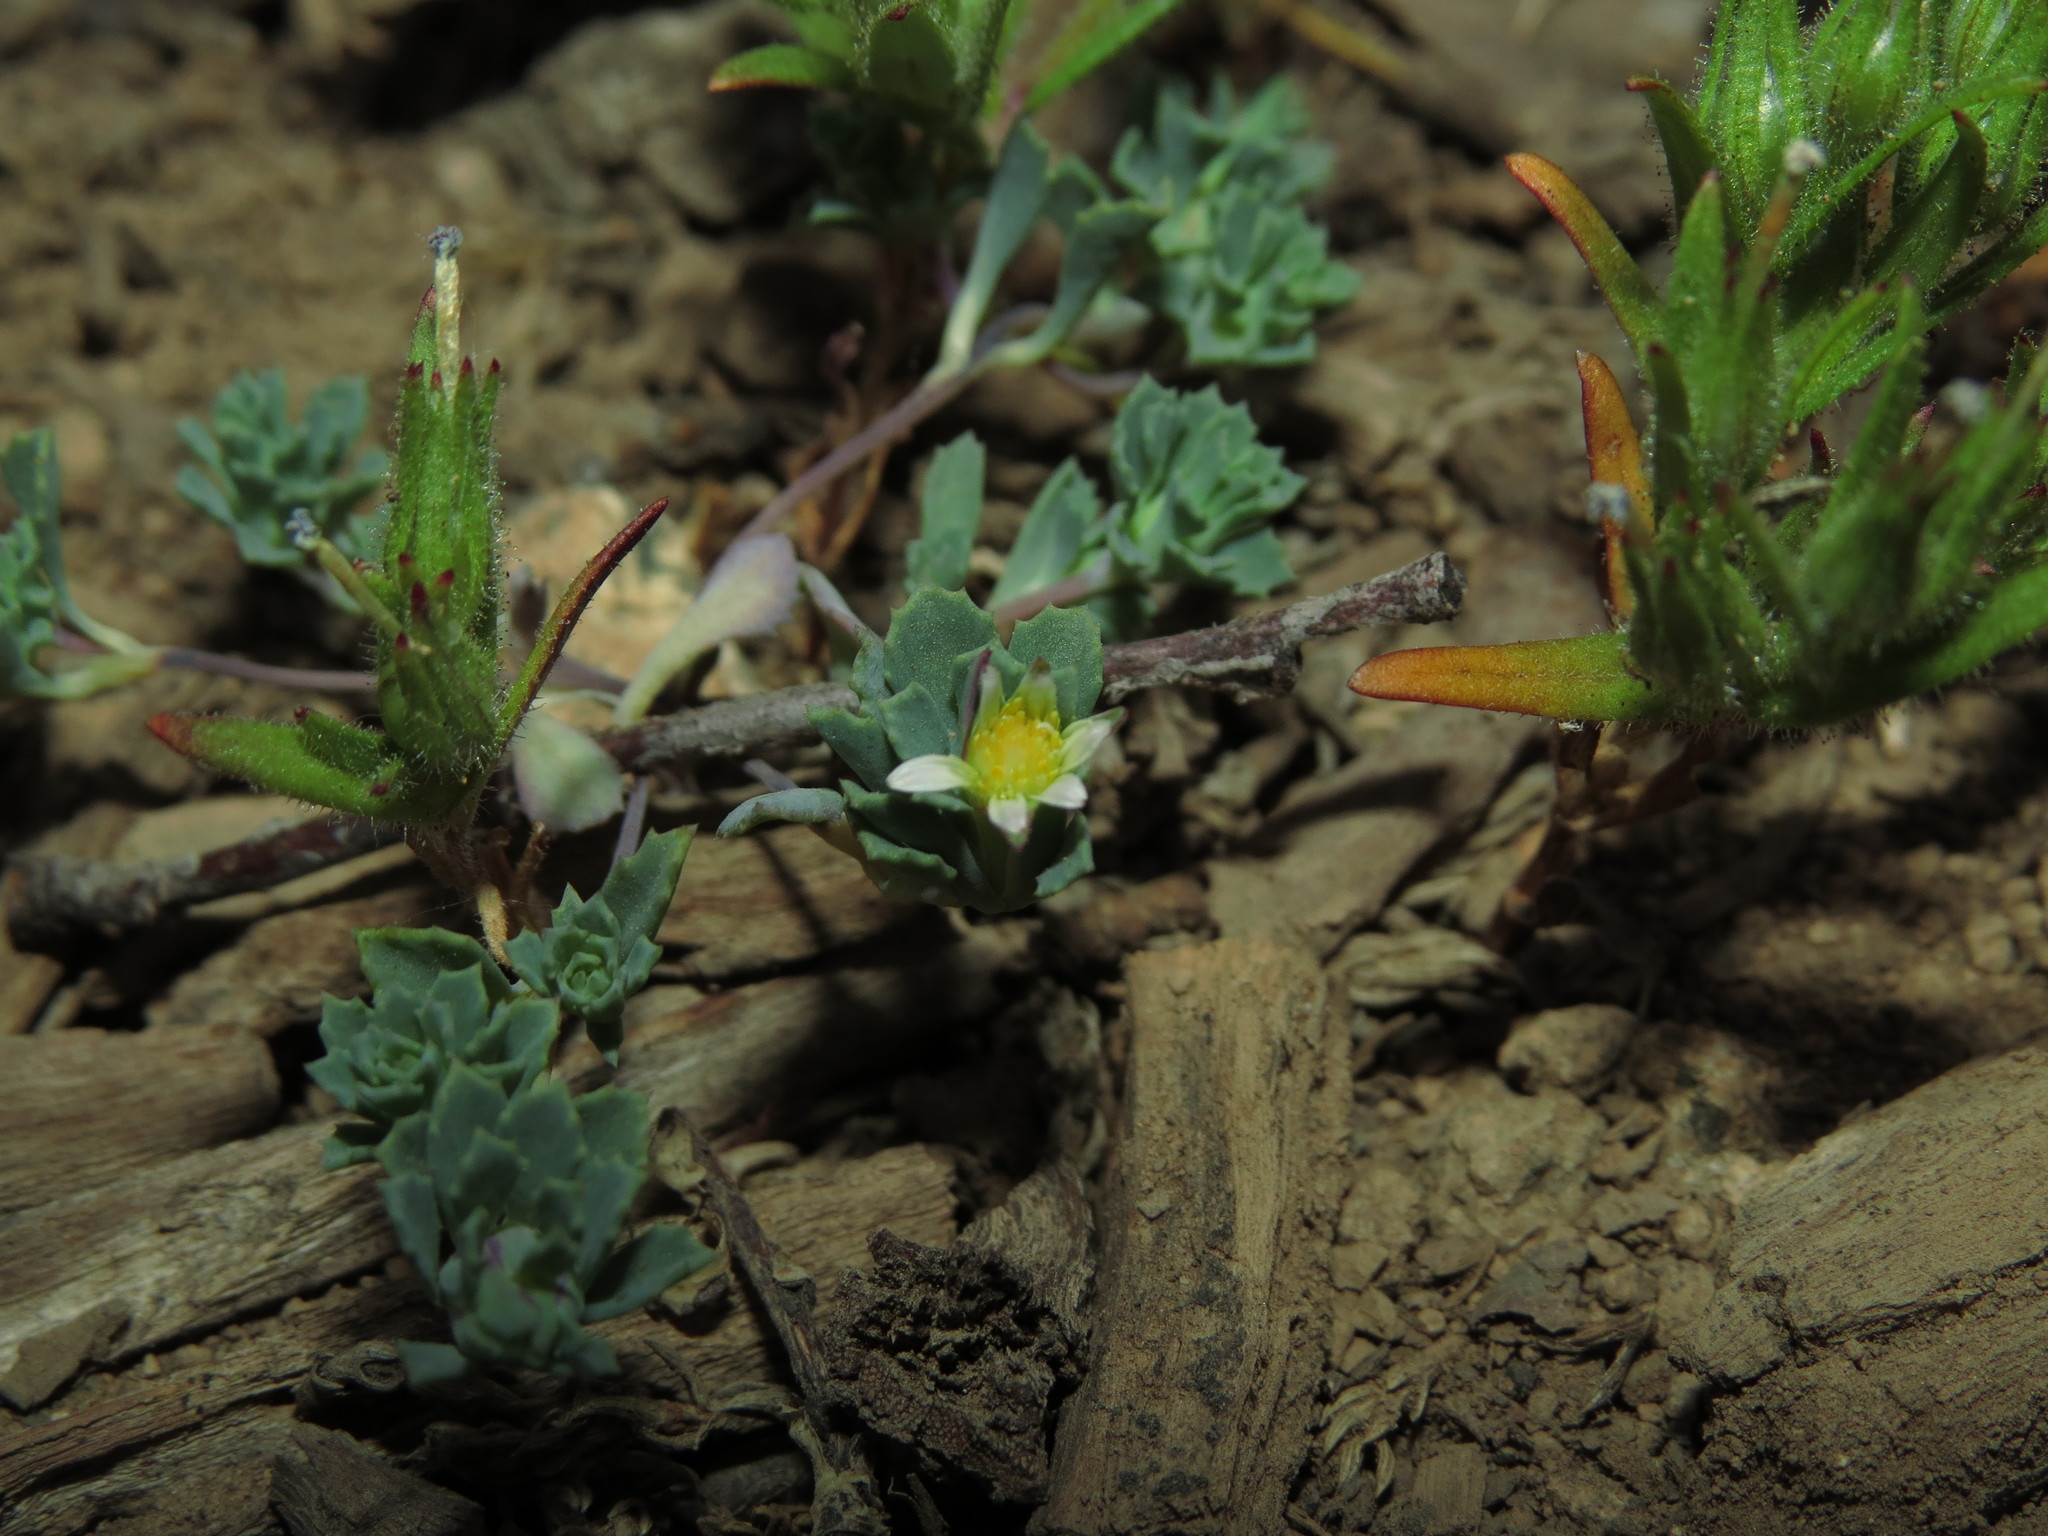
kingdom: Plantae
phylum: Tracheophyta
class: Magnoliopsida
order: Asterales
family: Asteraceae
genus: Chaetanthera
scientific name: Chaetanthera euphrasioides
